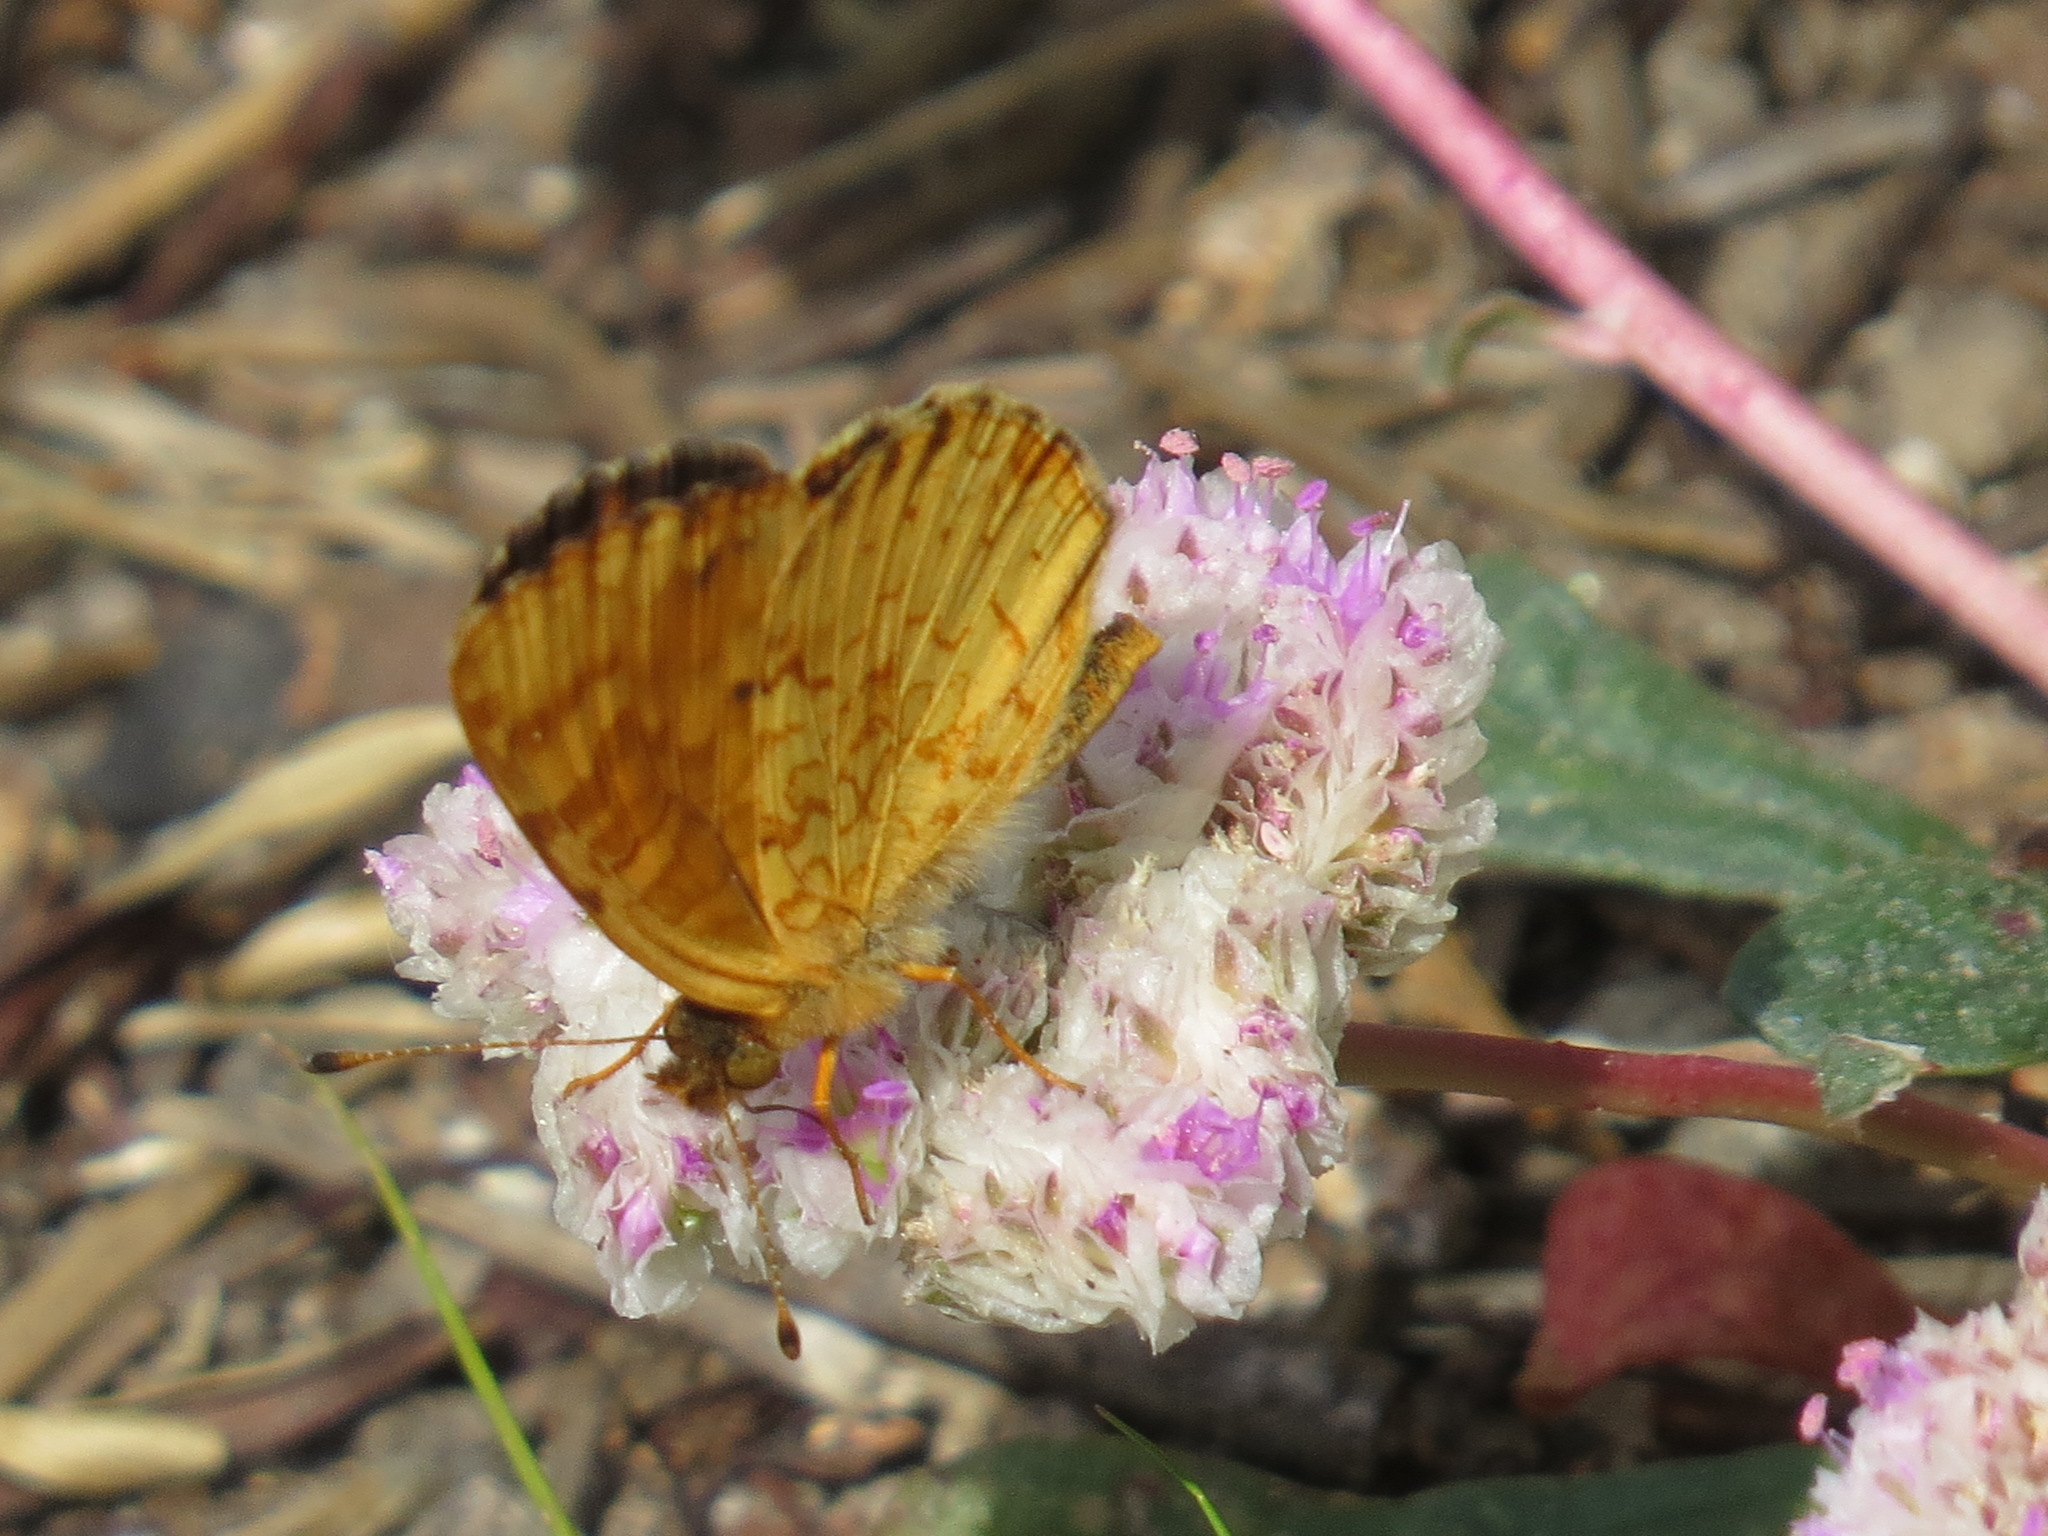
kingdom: Animalia
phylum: Arthropoda
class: Insecta
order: Lepidoptera
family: Nymphalidae
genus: Phyciodes
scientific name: Phyciodes tharos
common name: Pearl crescent
